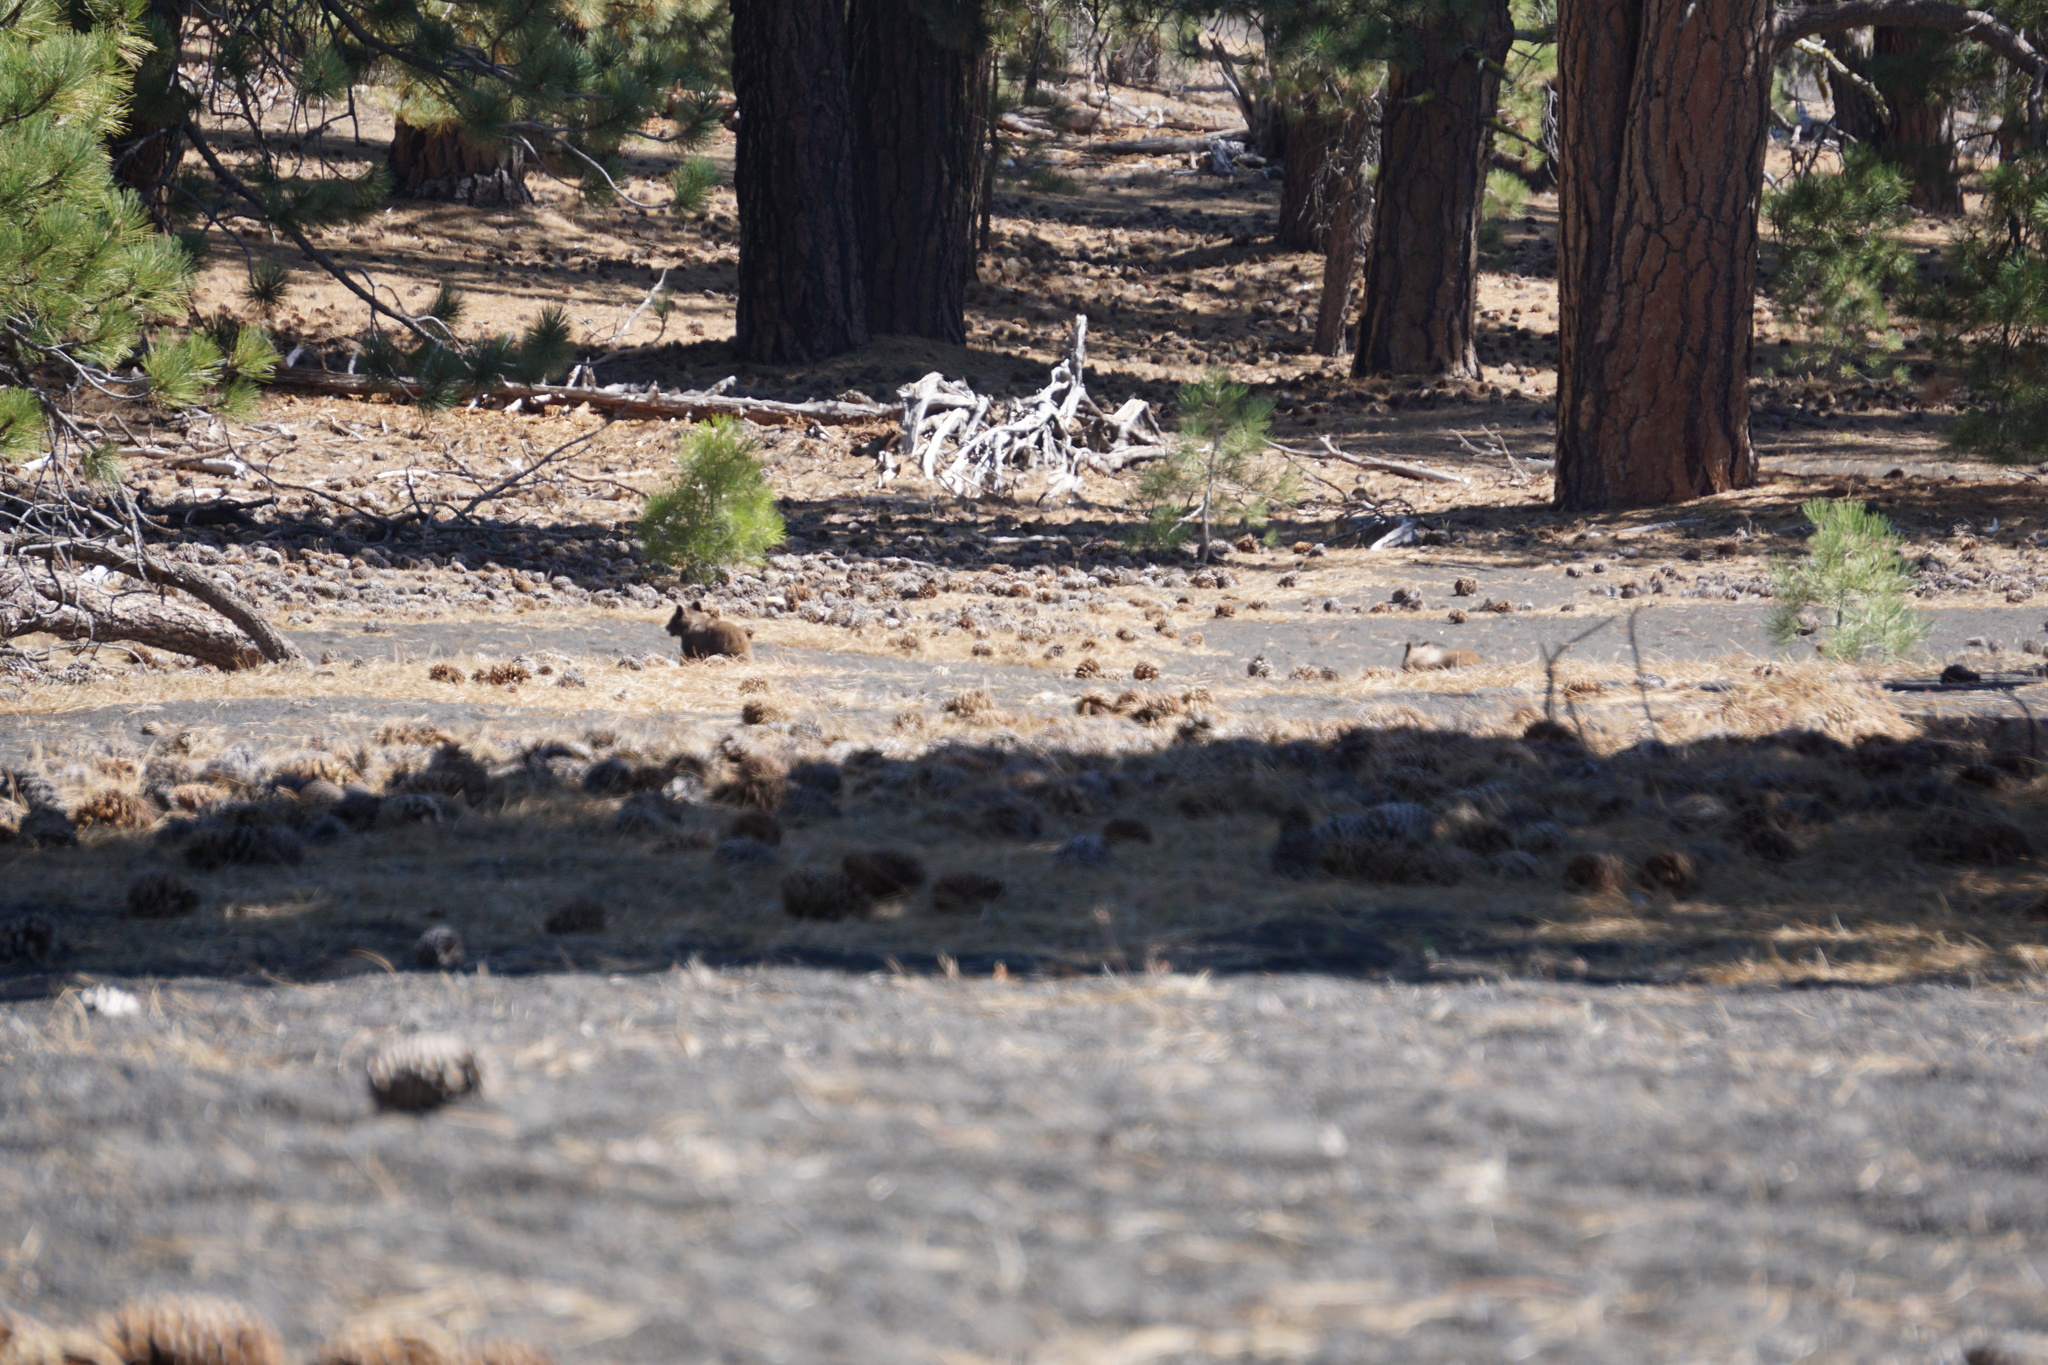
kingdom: Animalia
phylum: Chordata
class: Mammalia
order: Carnivora
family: Ursidae
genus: Ursus
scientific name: Ursus americanus
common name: American black bear
